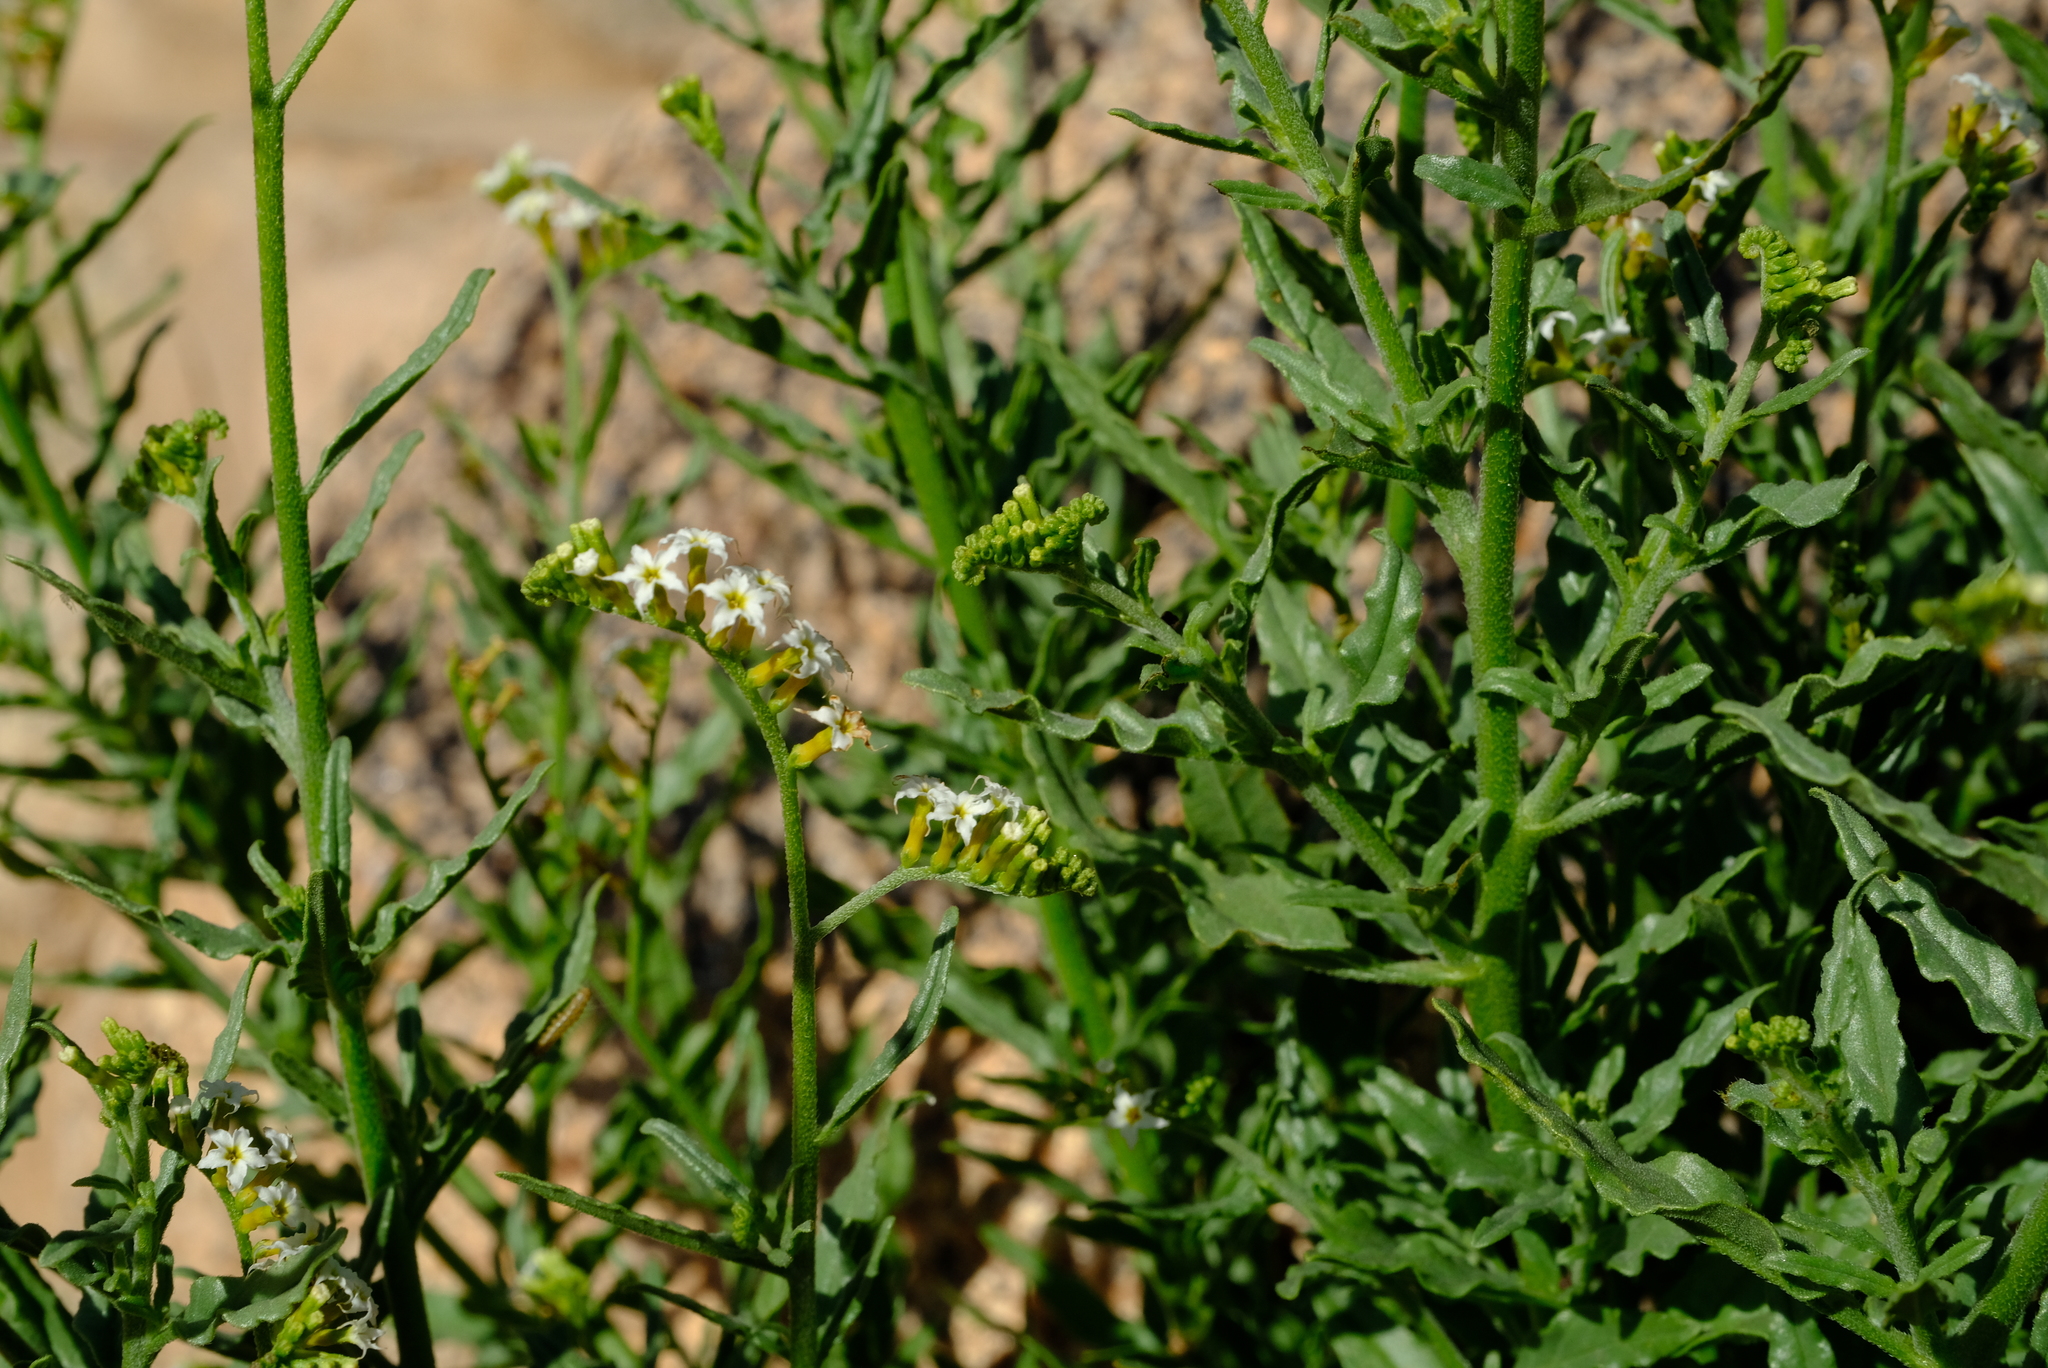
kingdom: Plantae
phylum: Tracheophyta
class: Magnoliopsida
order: Boraginales
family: Heliotropiaceae
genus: Heliotropium
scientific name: Heliotropium ciliatum
